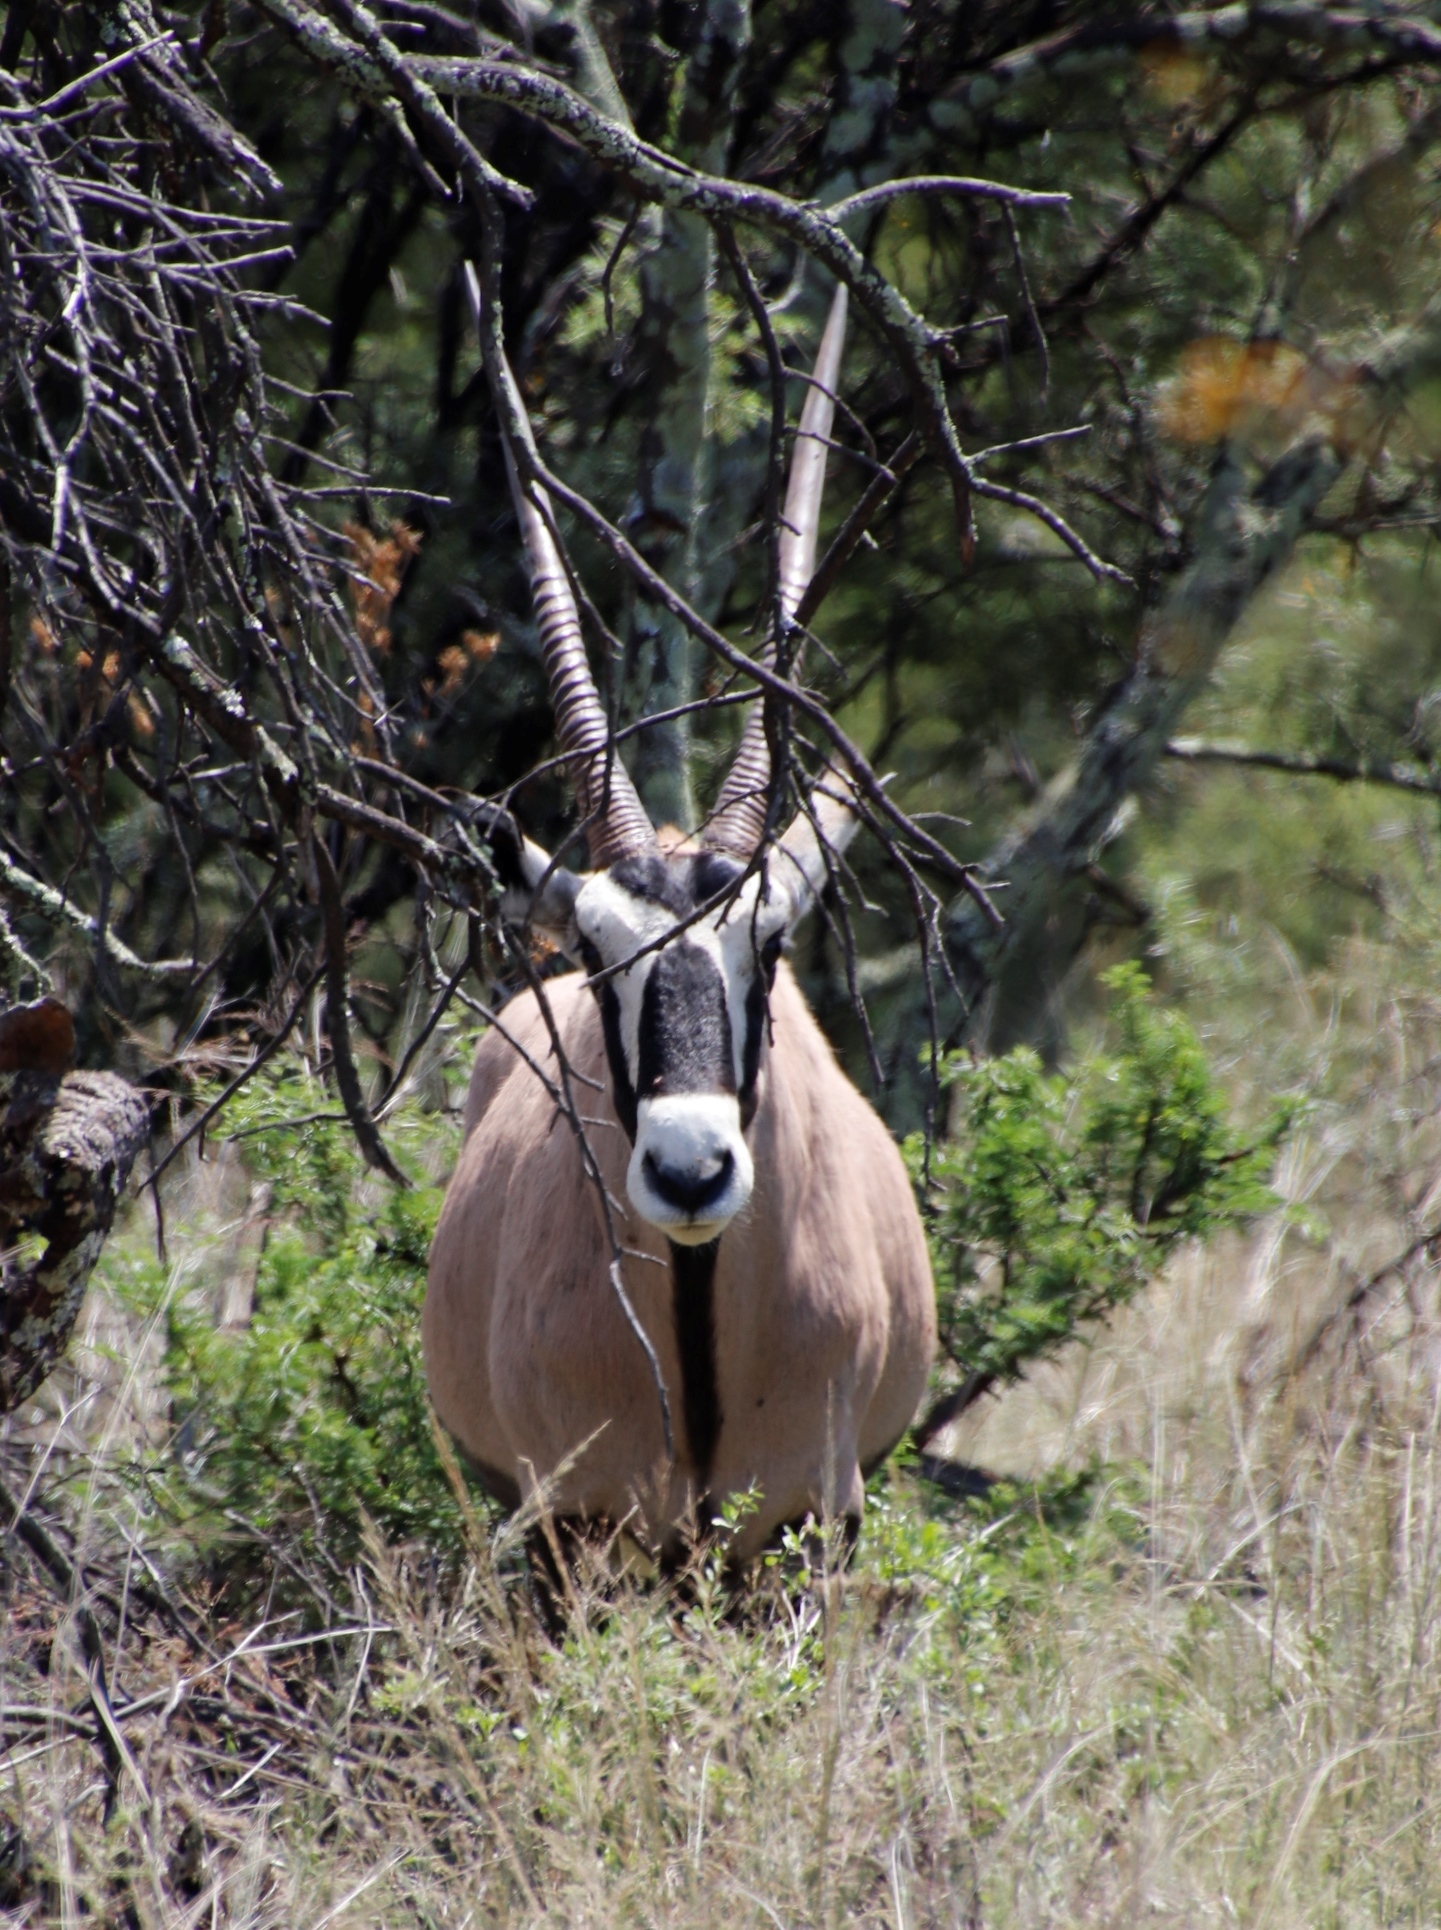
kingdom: Animalia
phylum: Chordata
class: Mammalia
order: Artiodactyla
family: Bovidae
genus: Oryx
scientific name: Oryx gazella
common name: Gemsbok
